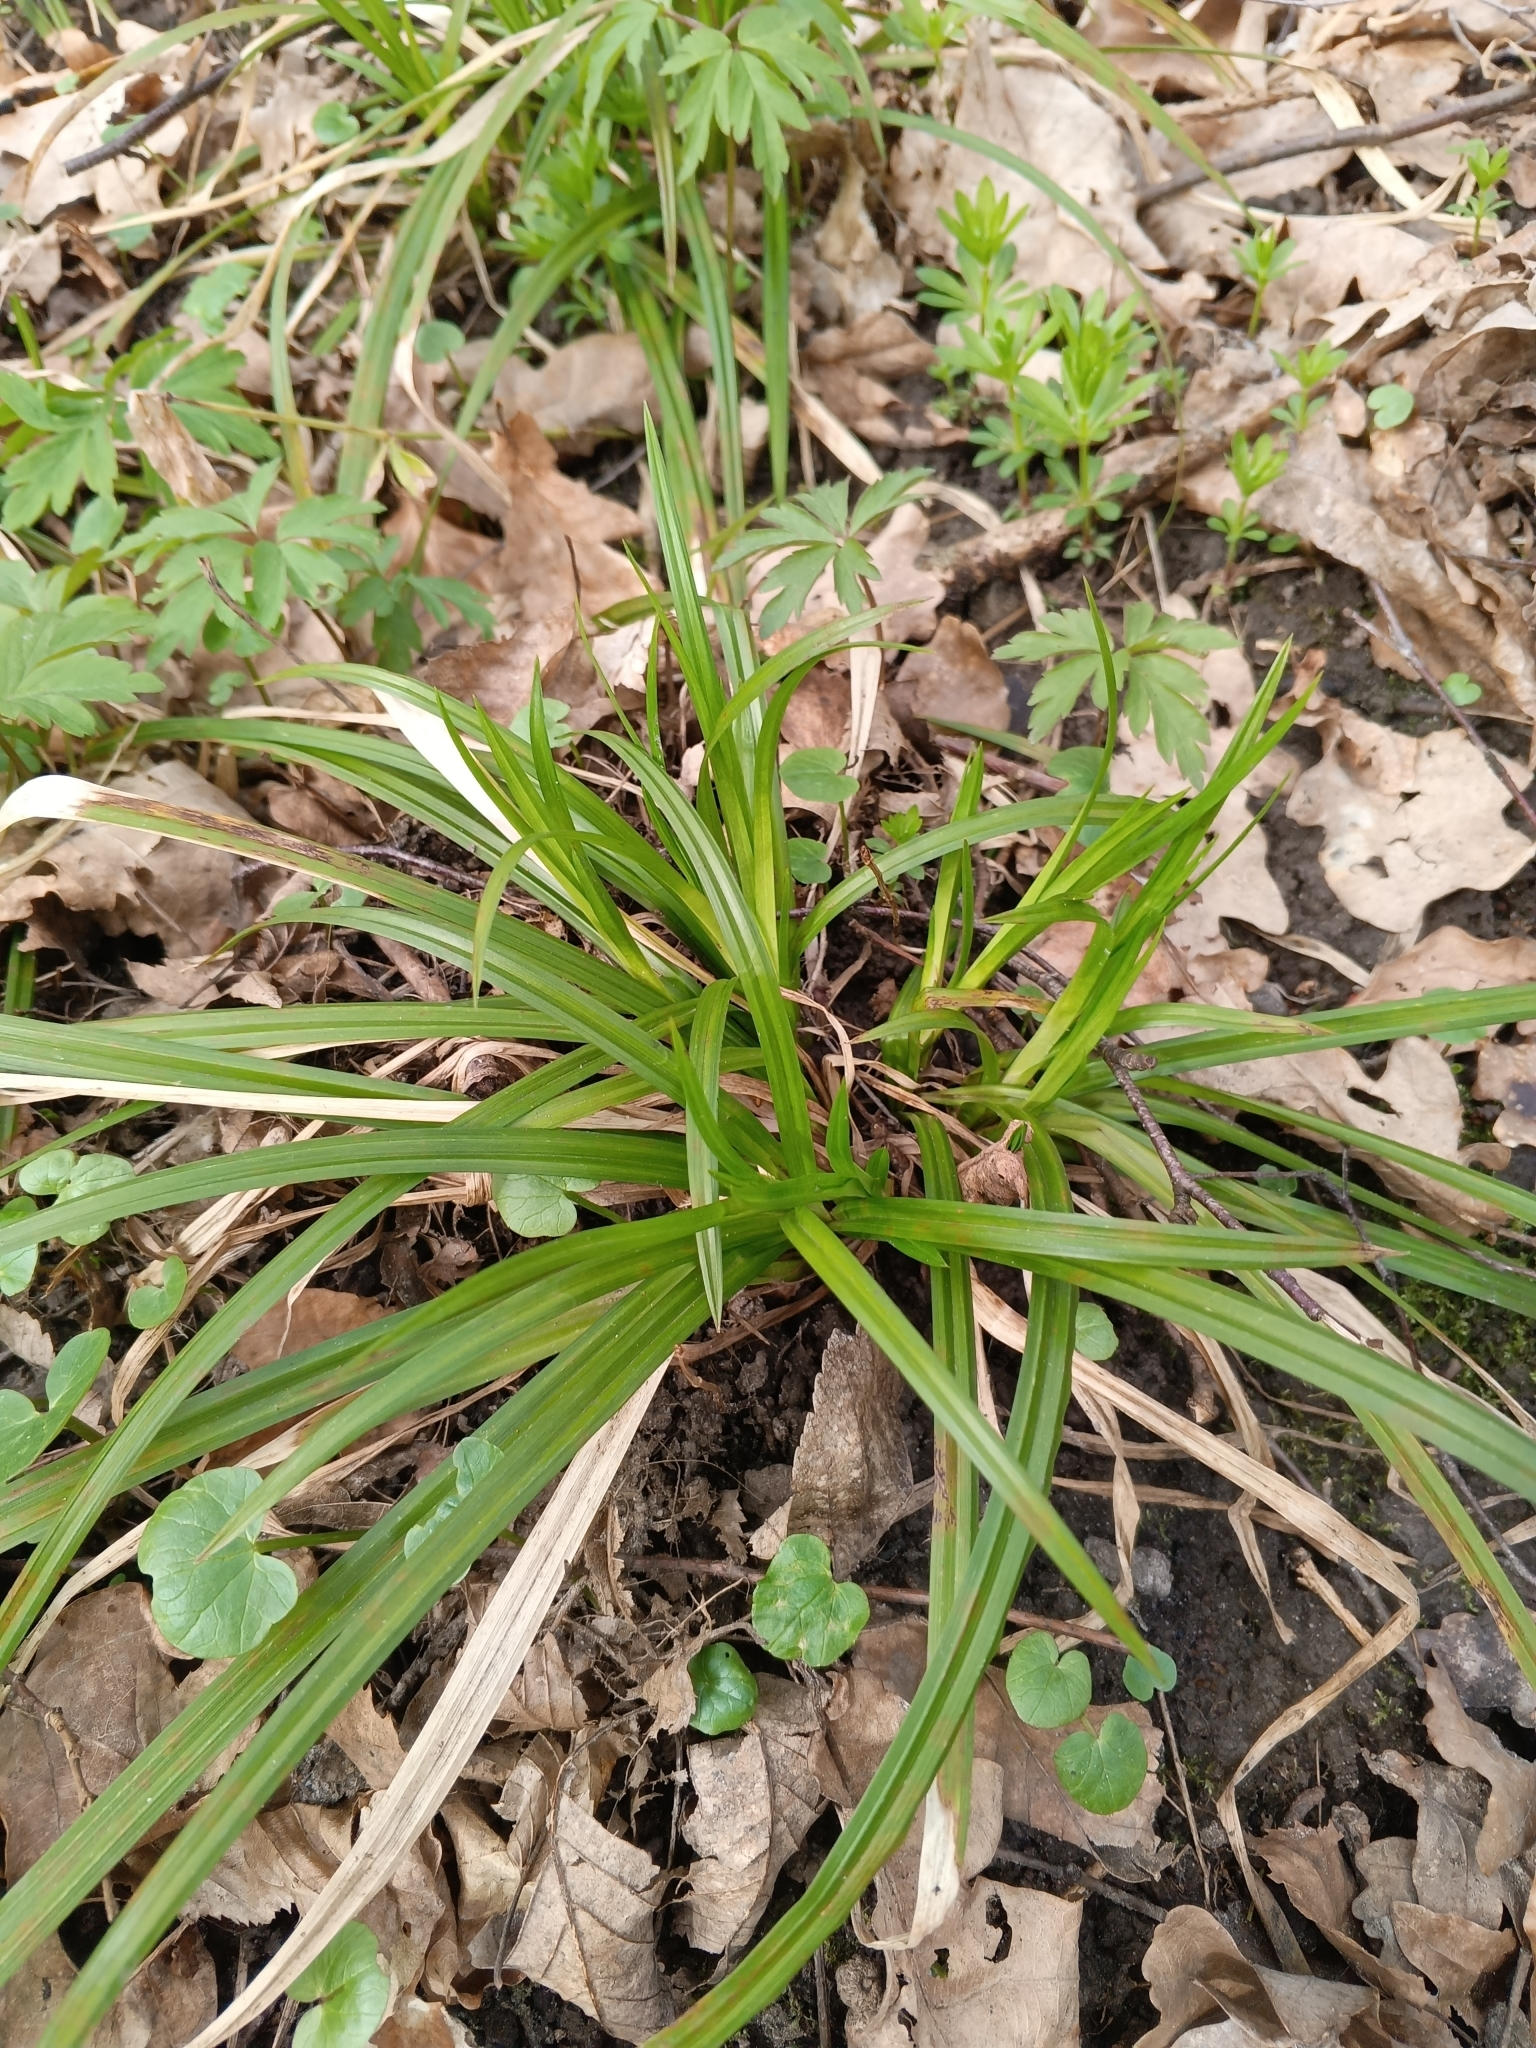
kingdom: Plantae
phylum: Tracheophyta
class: Liliopsida
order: Poales
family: Cyperaceae
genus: Carex
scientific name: Carex sylvatica
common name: Wood-sedge
